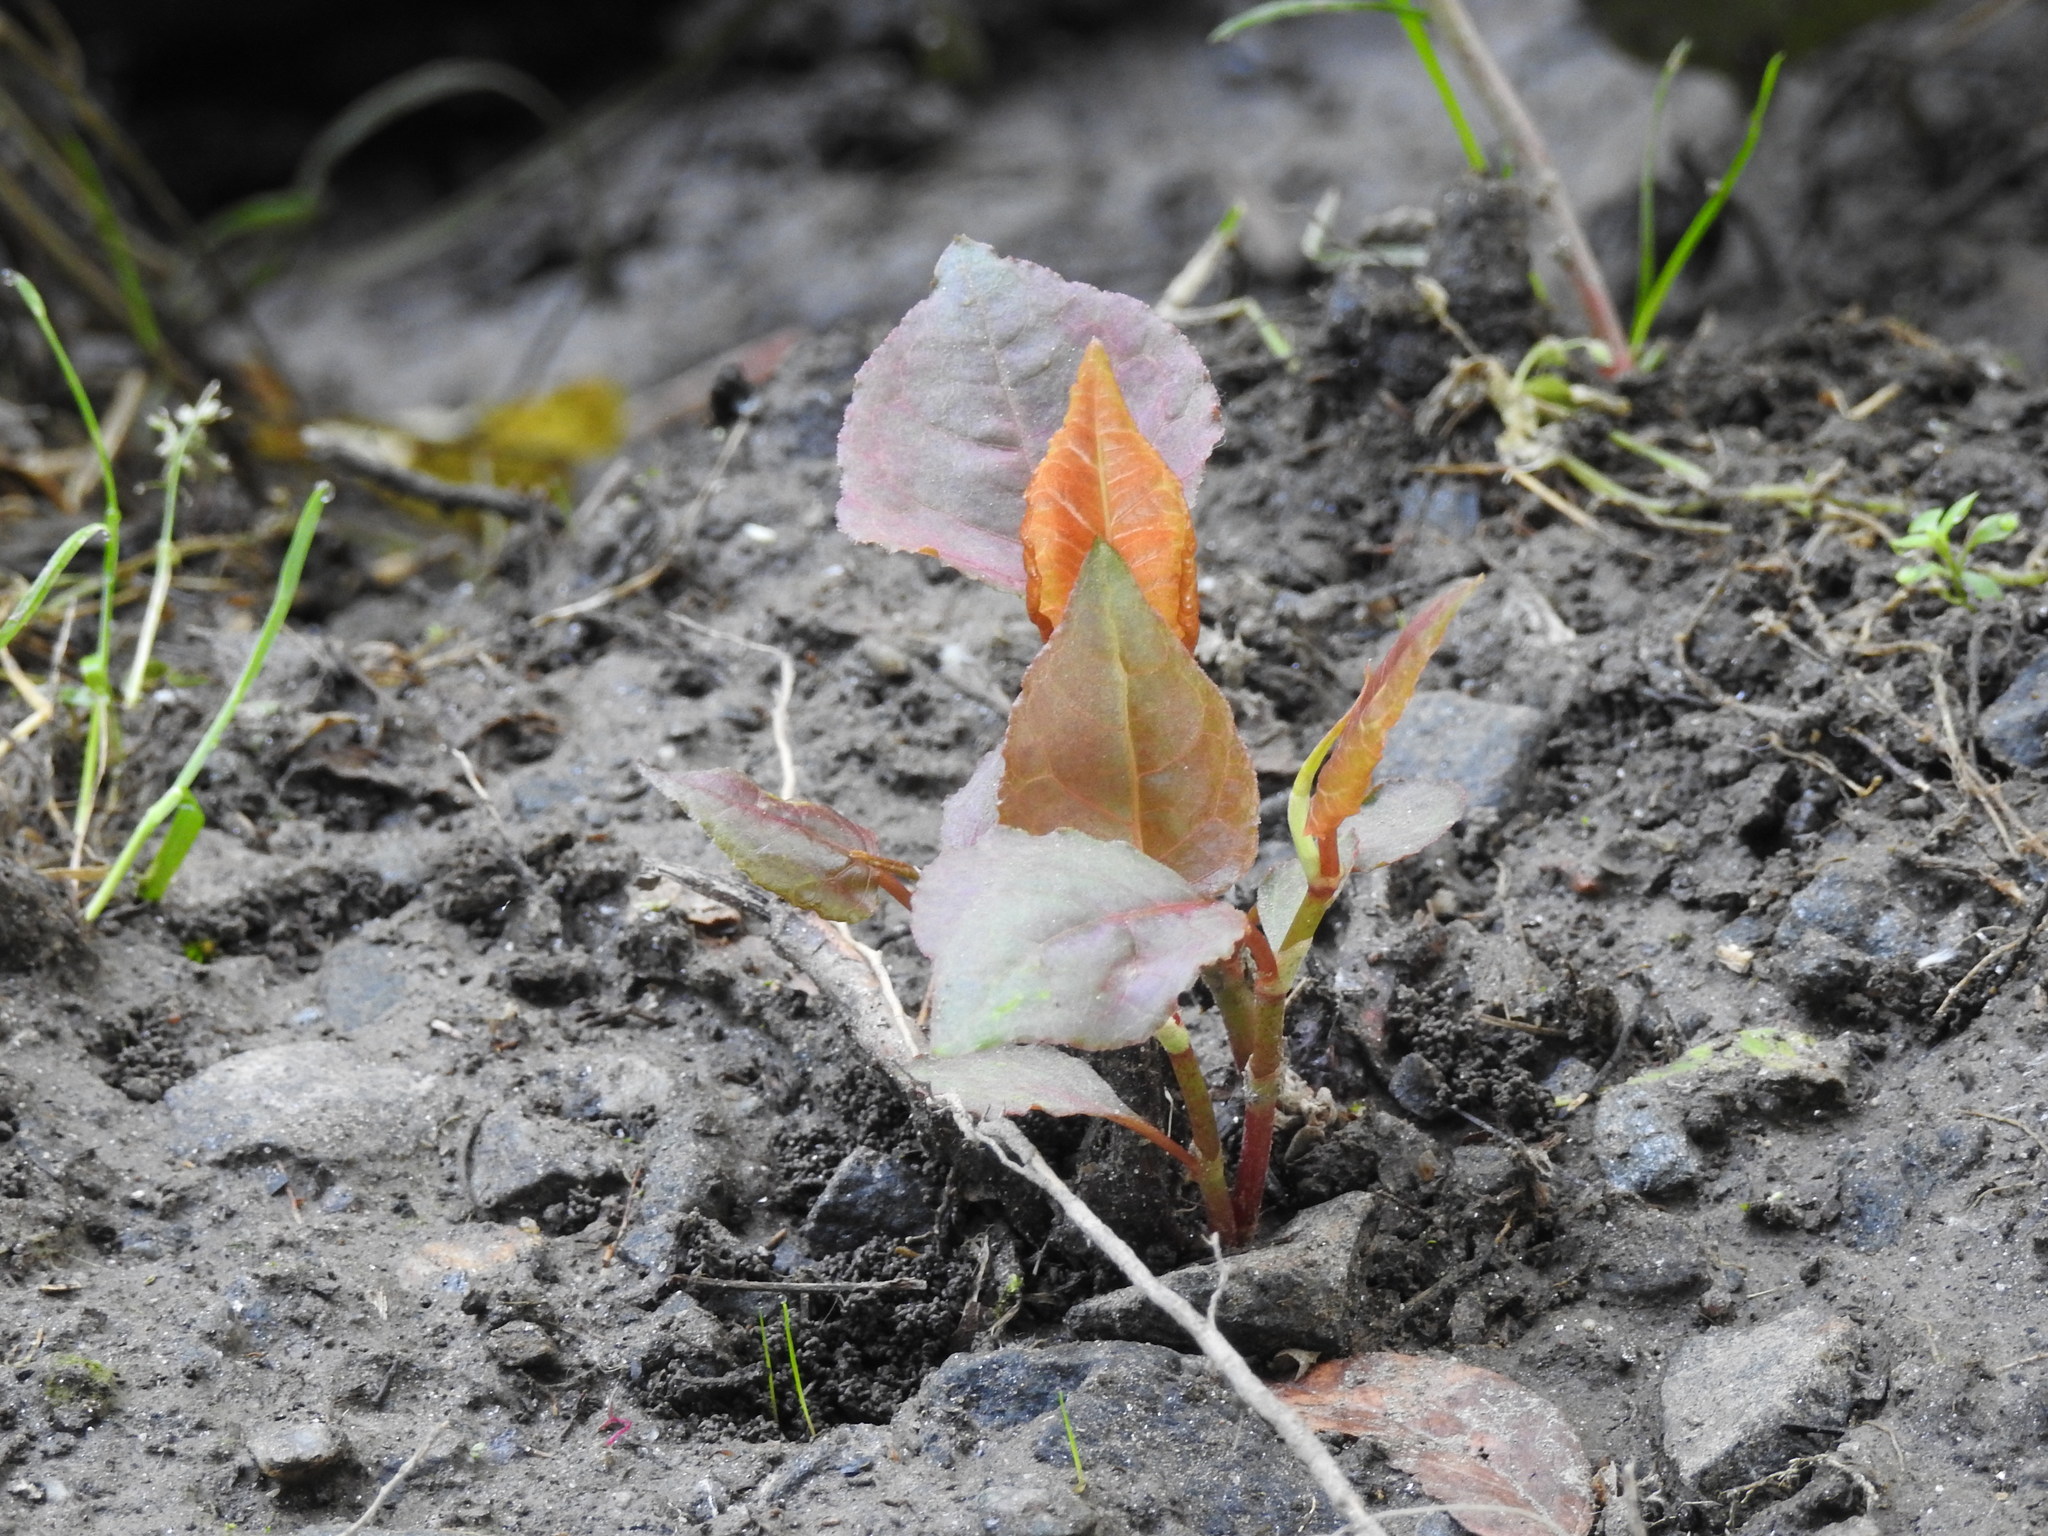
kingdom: Plantae
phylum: Tracheophyta
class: Magnoliopsida
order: Caryophyllales
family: Polygonaceae
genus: Reynoutria
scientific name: Reynoutria japonica
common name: Japanese knotweed
